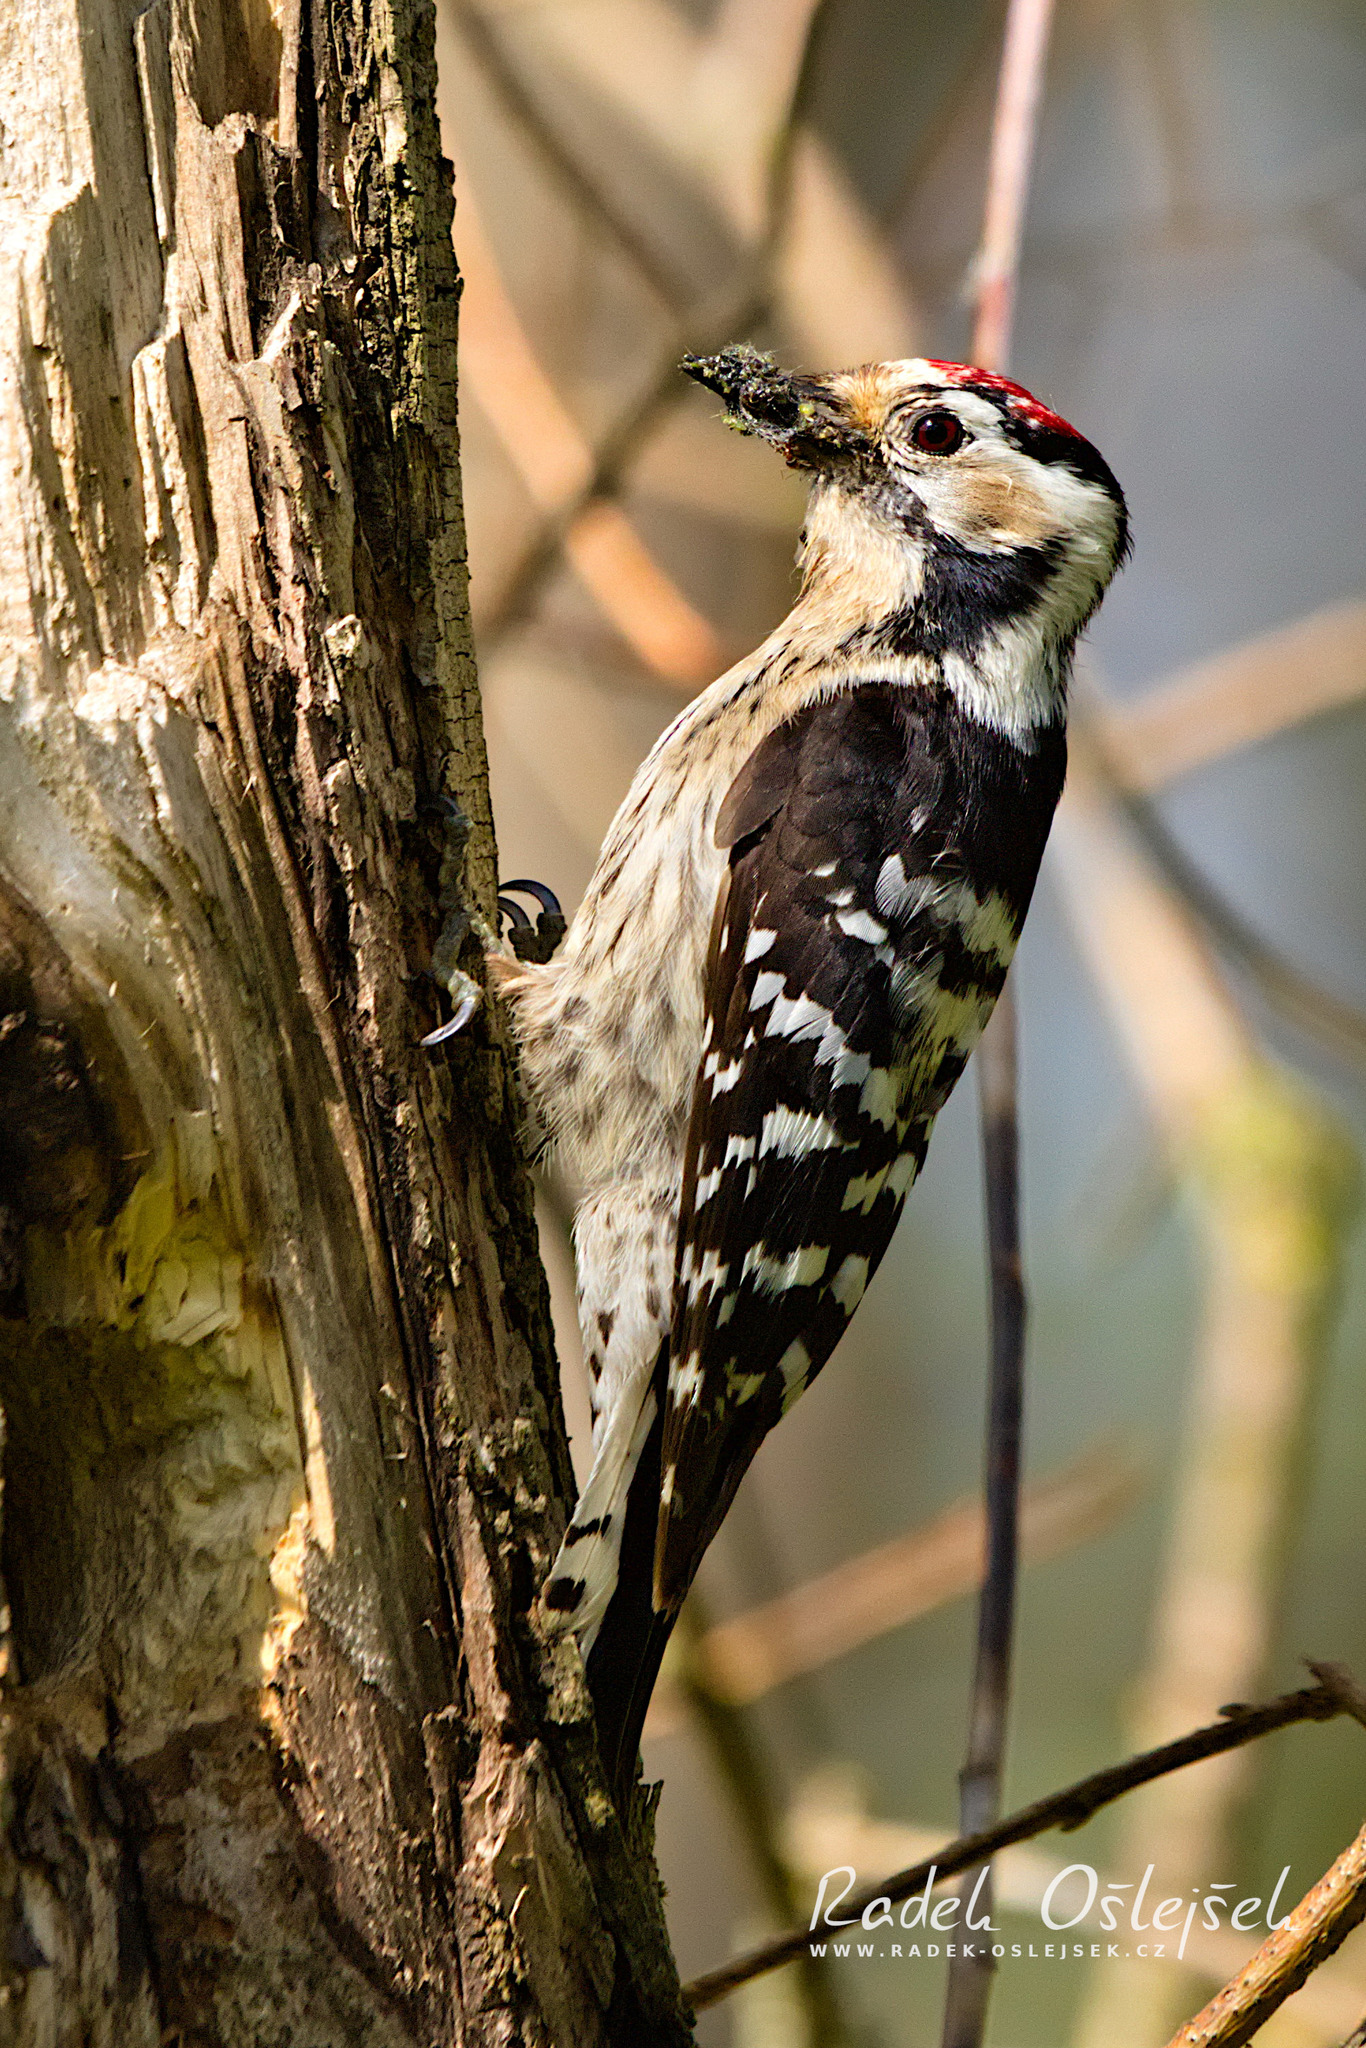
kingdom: Animalia
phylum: Chordata
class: Aves
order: Piciformes
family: Picidae
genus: Dryobates
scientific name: Dryobates minor
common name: Lesser spotted woodpecker
